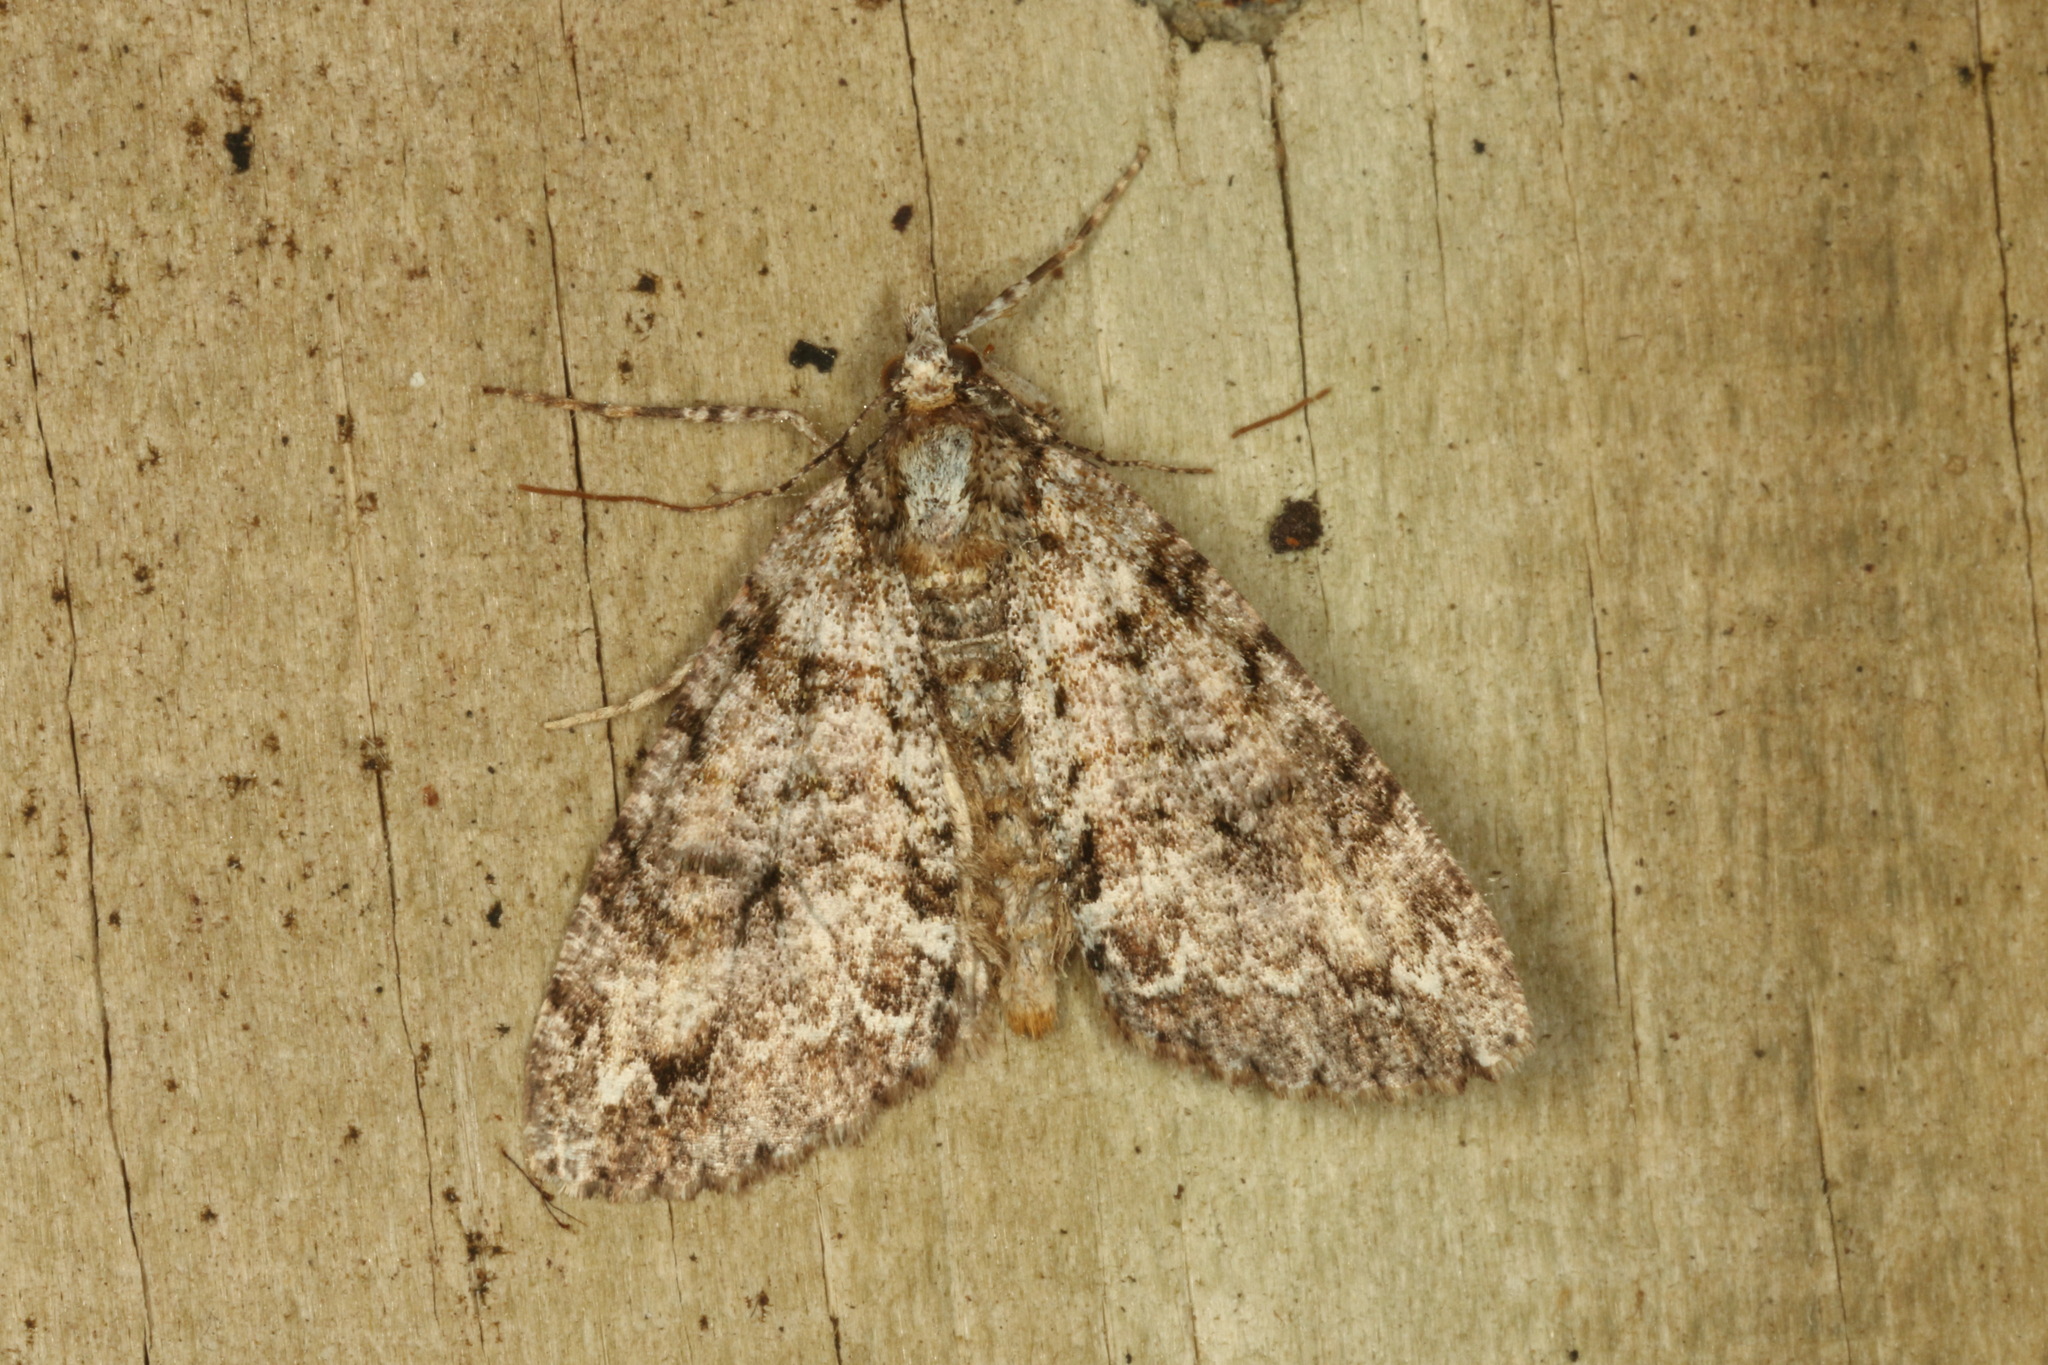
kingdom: Animalia
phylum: Arthropoda
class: Insecta
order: Lepidoptera
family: Geometridae
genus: Pseudocoremia
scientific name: Pseudocoremia suavis
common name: Common forest looper
